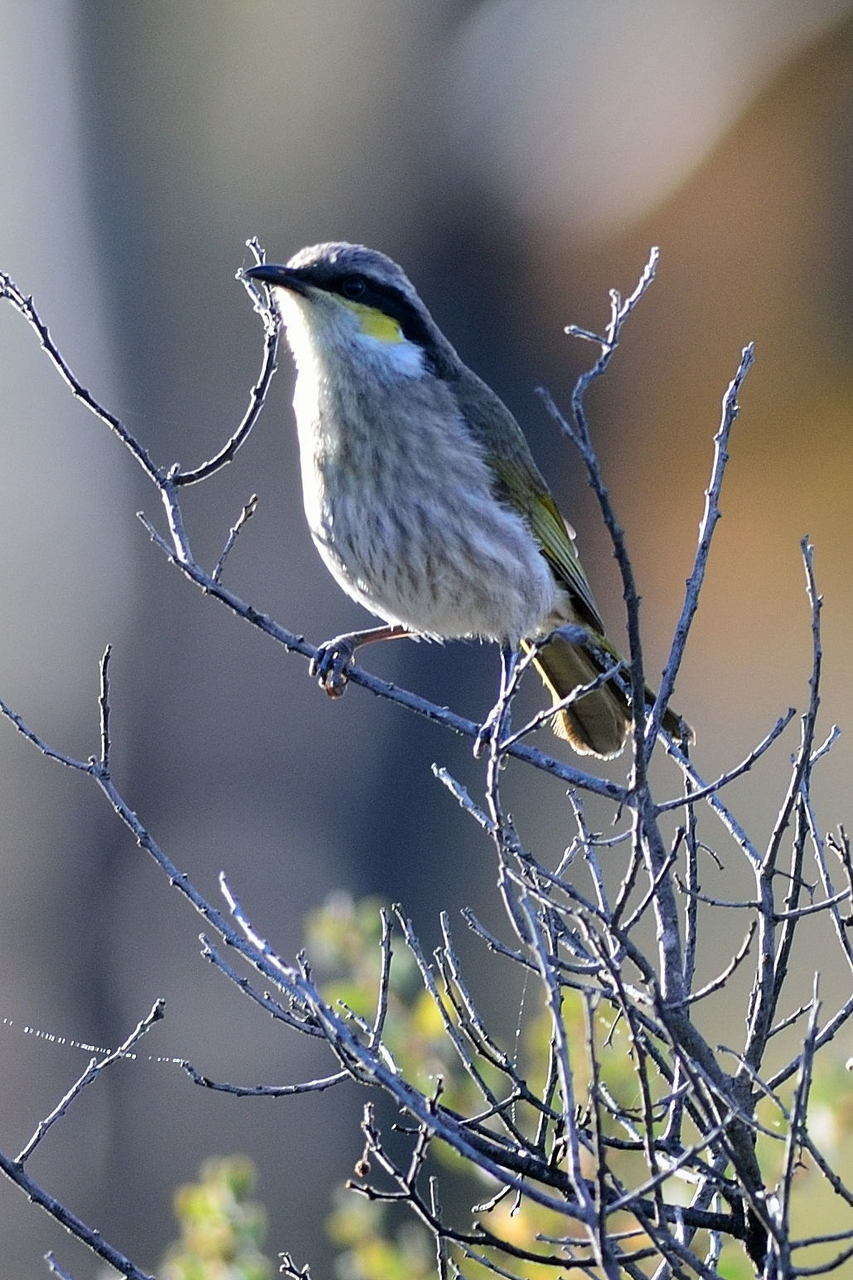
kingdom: Animalia
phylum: Chordata
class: Aves
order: Passeriformes
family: Meliphagidae
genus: Gavicalis
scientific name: Gavicalis virescens
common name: Singing honeyeater
